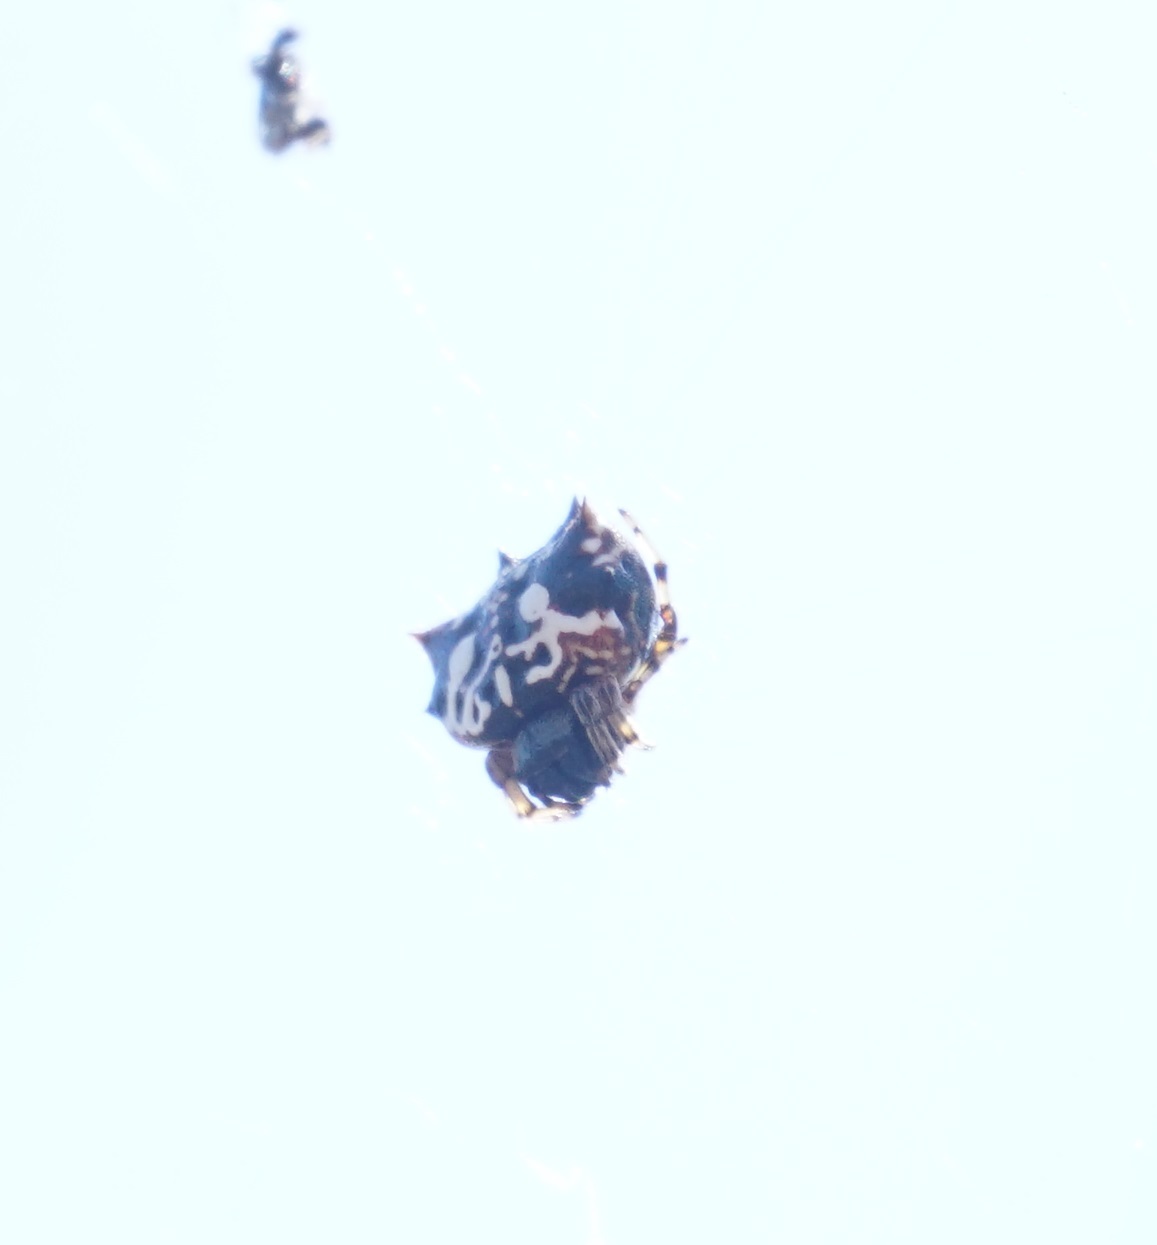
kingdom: Animalia
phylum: Arthropoda
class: Arachnida
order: Araneae
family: Araneidae
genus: Gasteracantha
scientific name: Gasteracantha sacerdotalis
